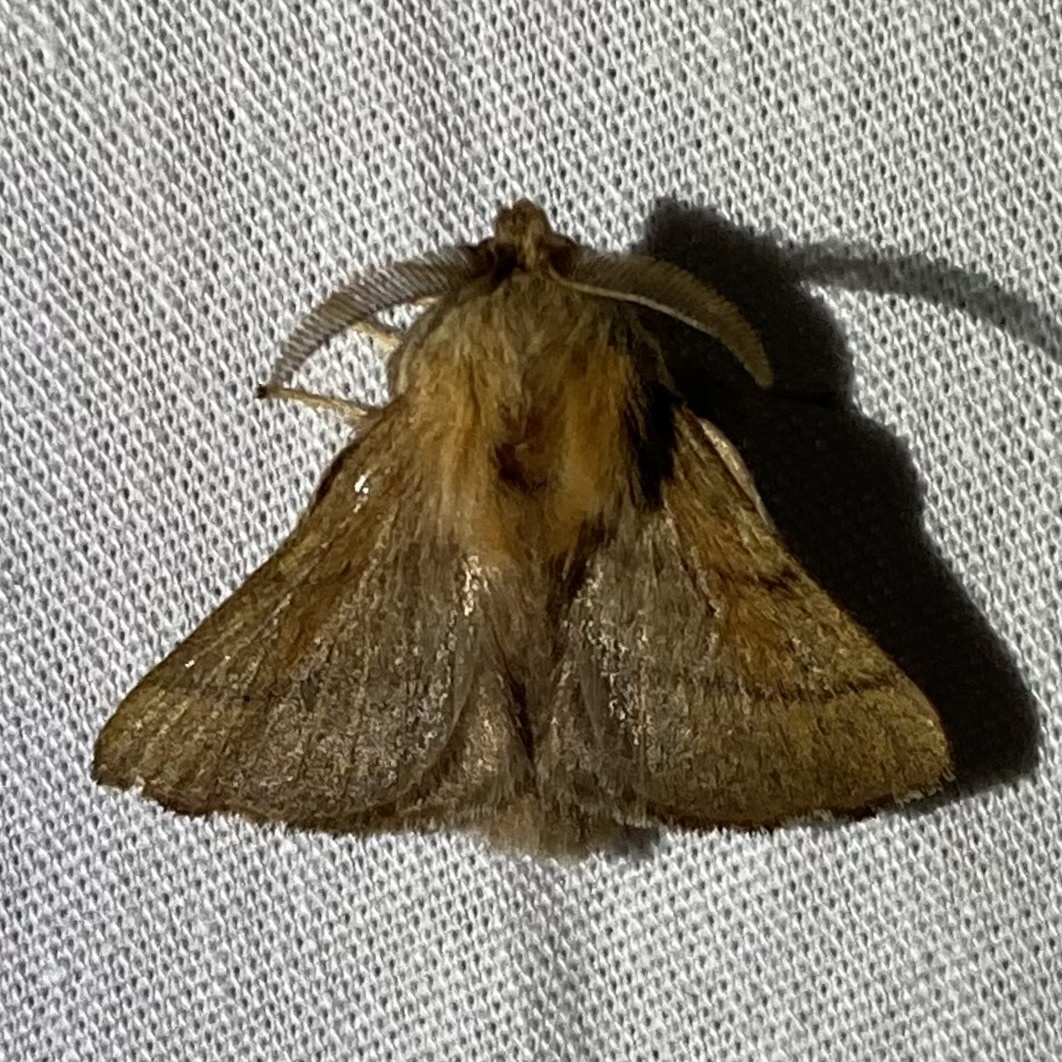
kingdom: Animalia
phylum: Arthropoda
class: Insecta
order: Lepidoptera
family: Lasiocampidae
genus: Malacosoma
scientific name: Malacosoma disstria
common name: Forest tent caterpillar
